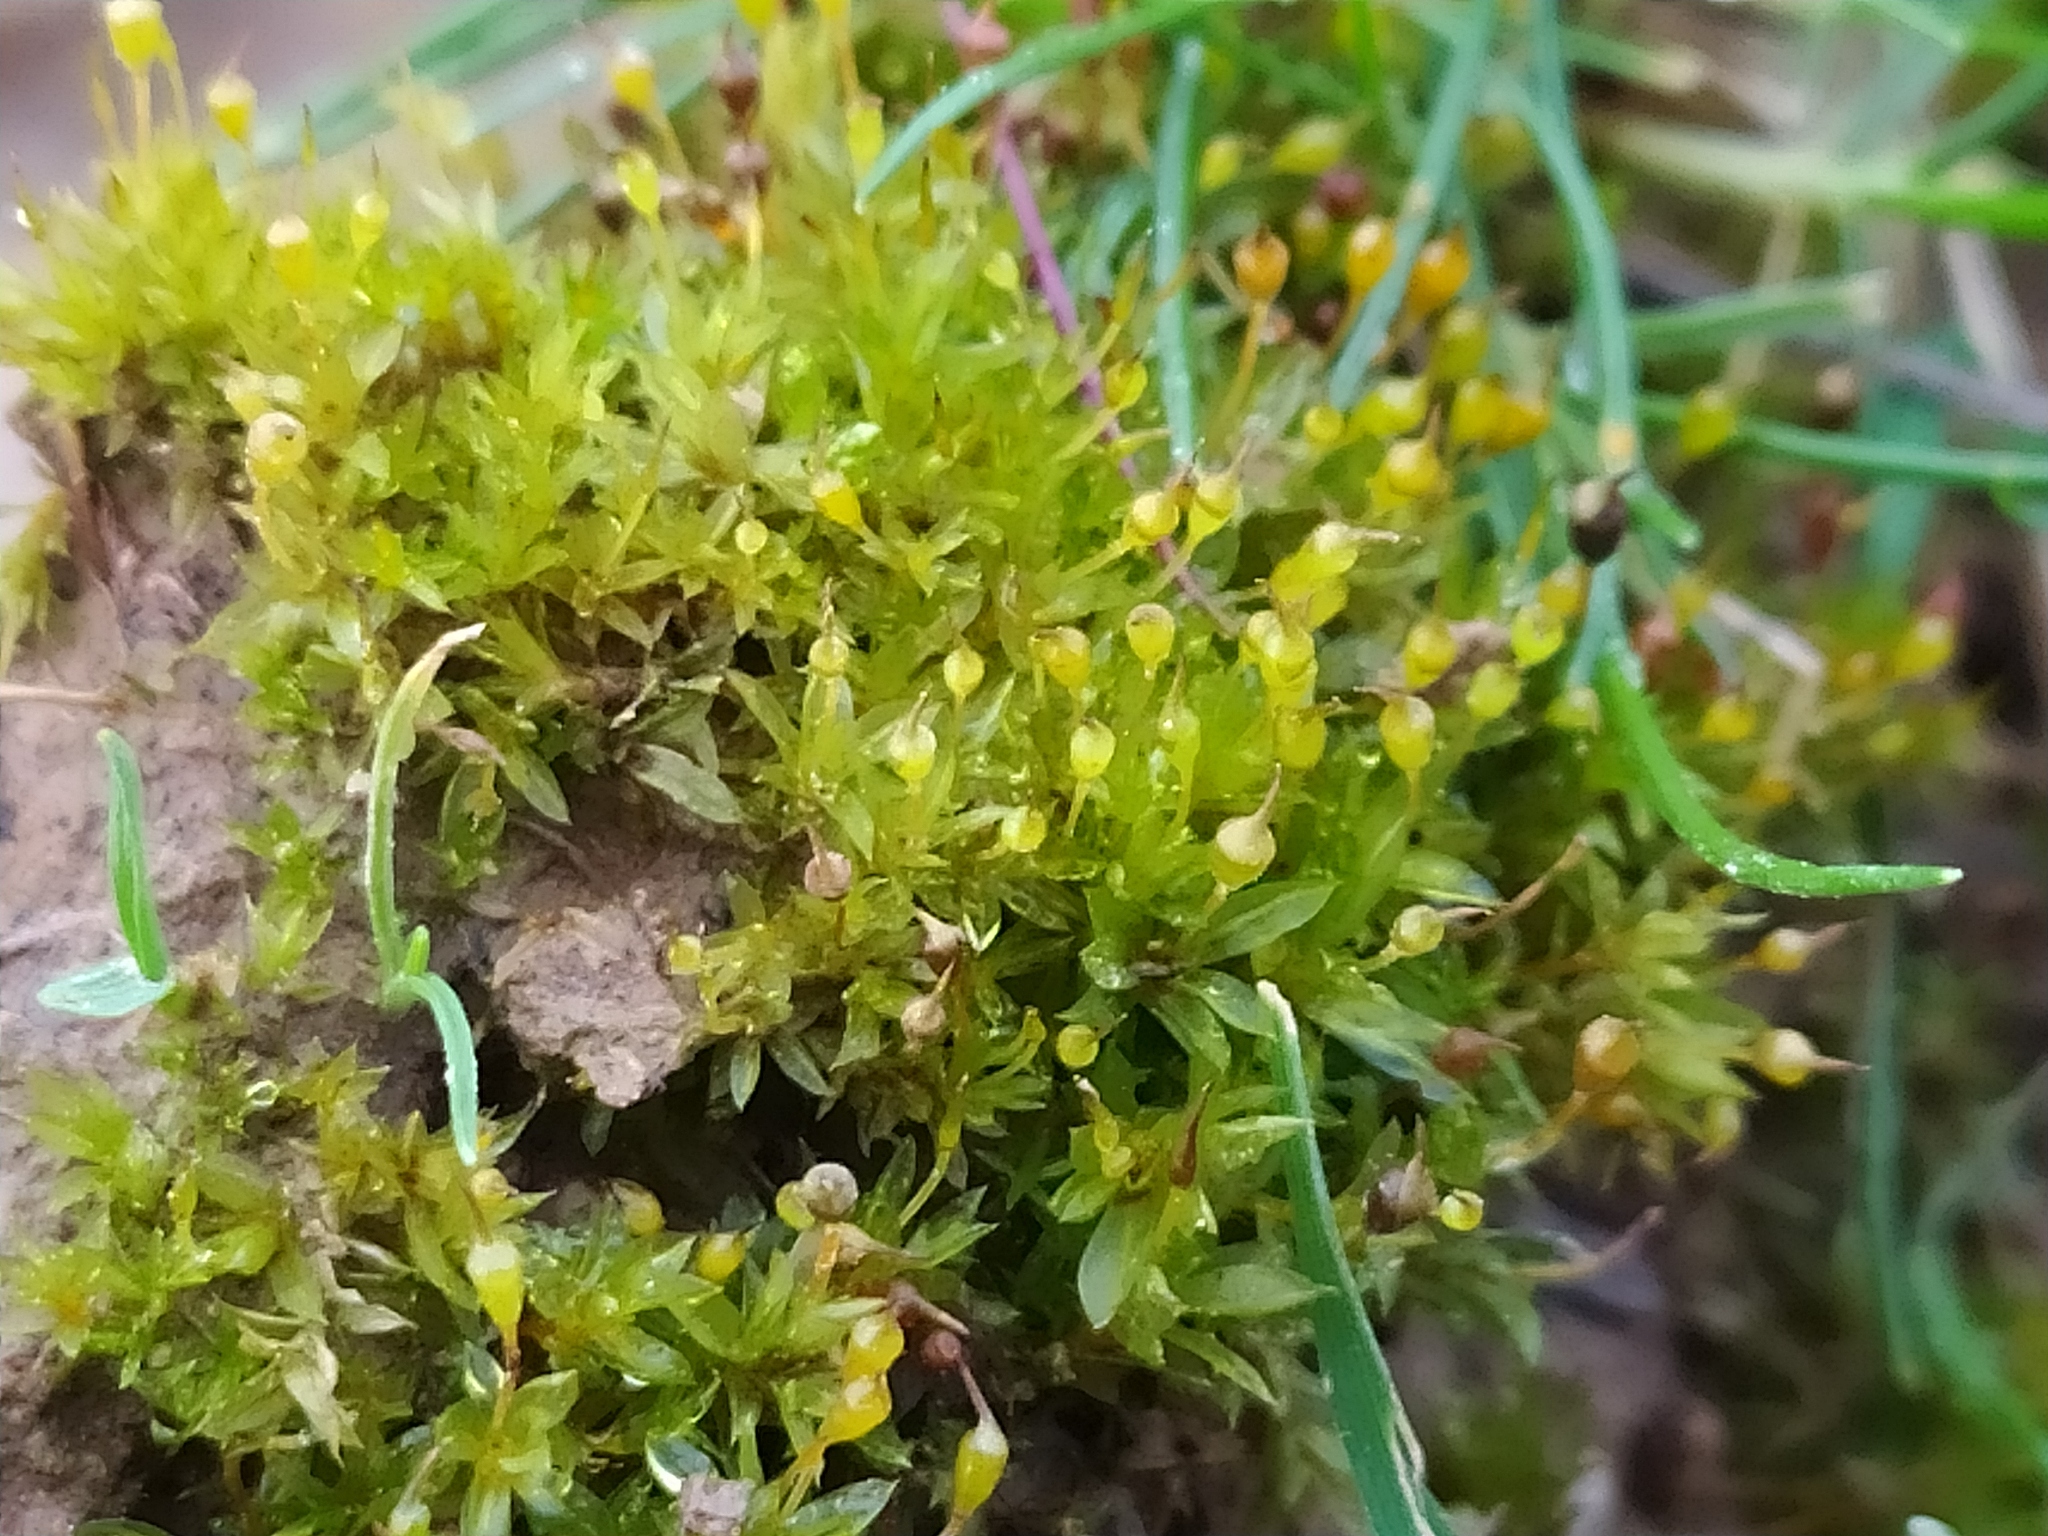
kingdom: Plantae
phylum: Bryophyta
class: Bryopsida
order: Pottiales
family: Pottiaceae
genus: Tortula
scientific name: Tortula truncata
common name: Truncated screw moss
